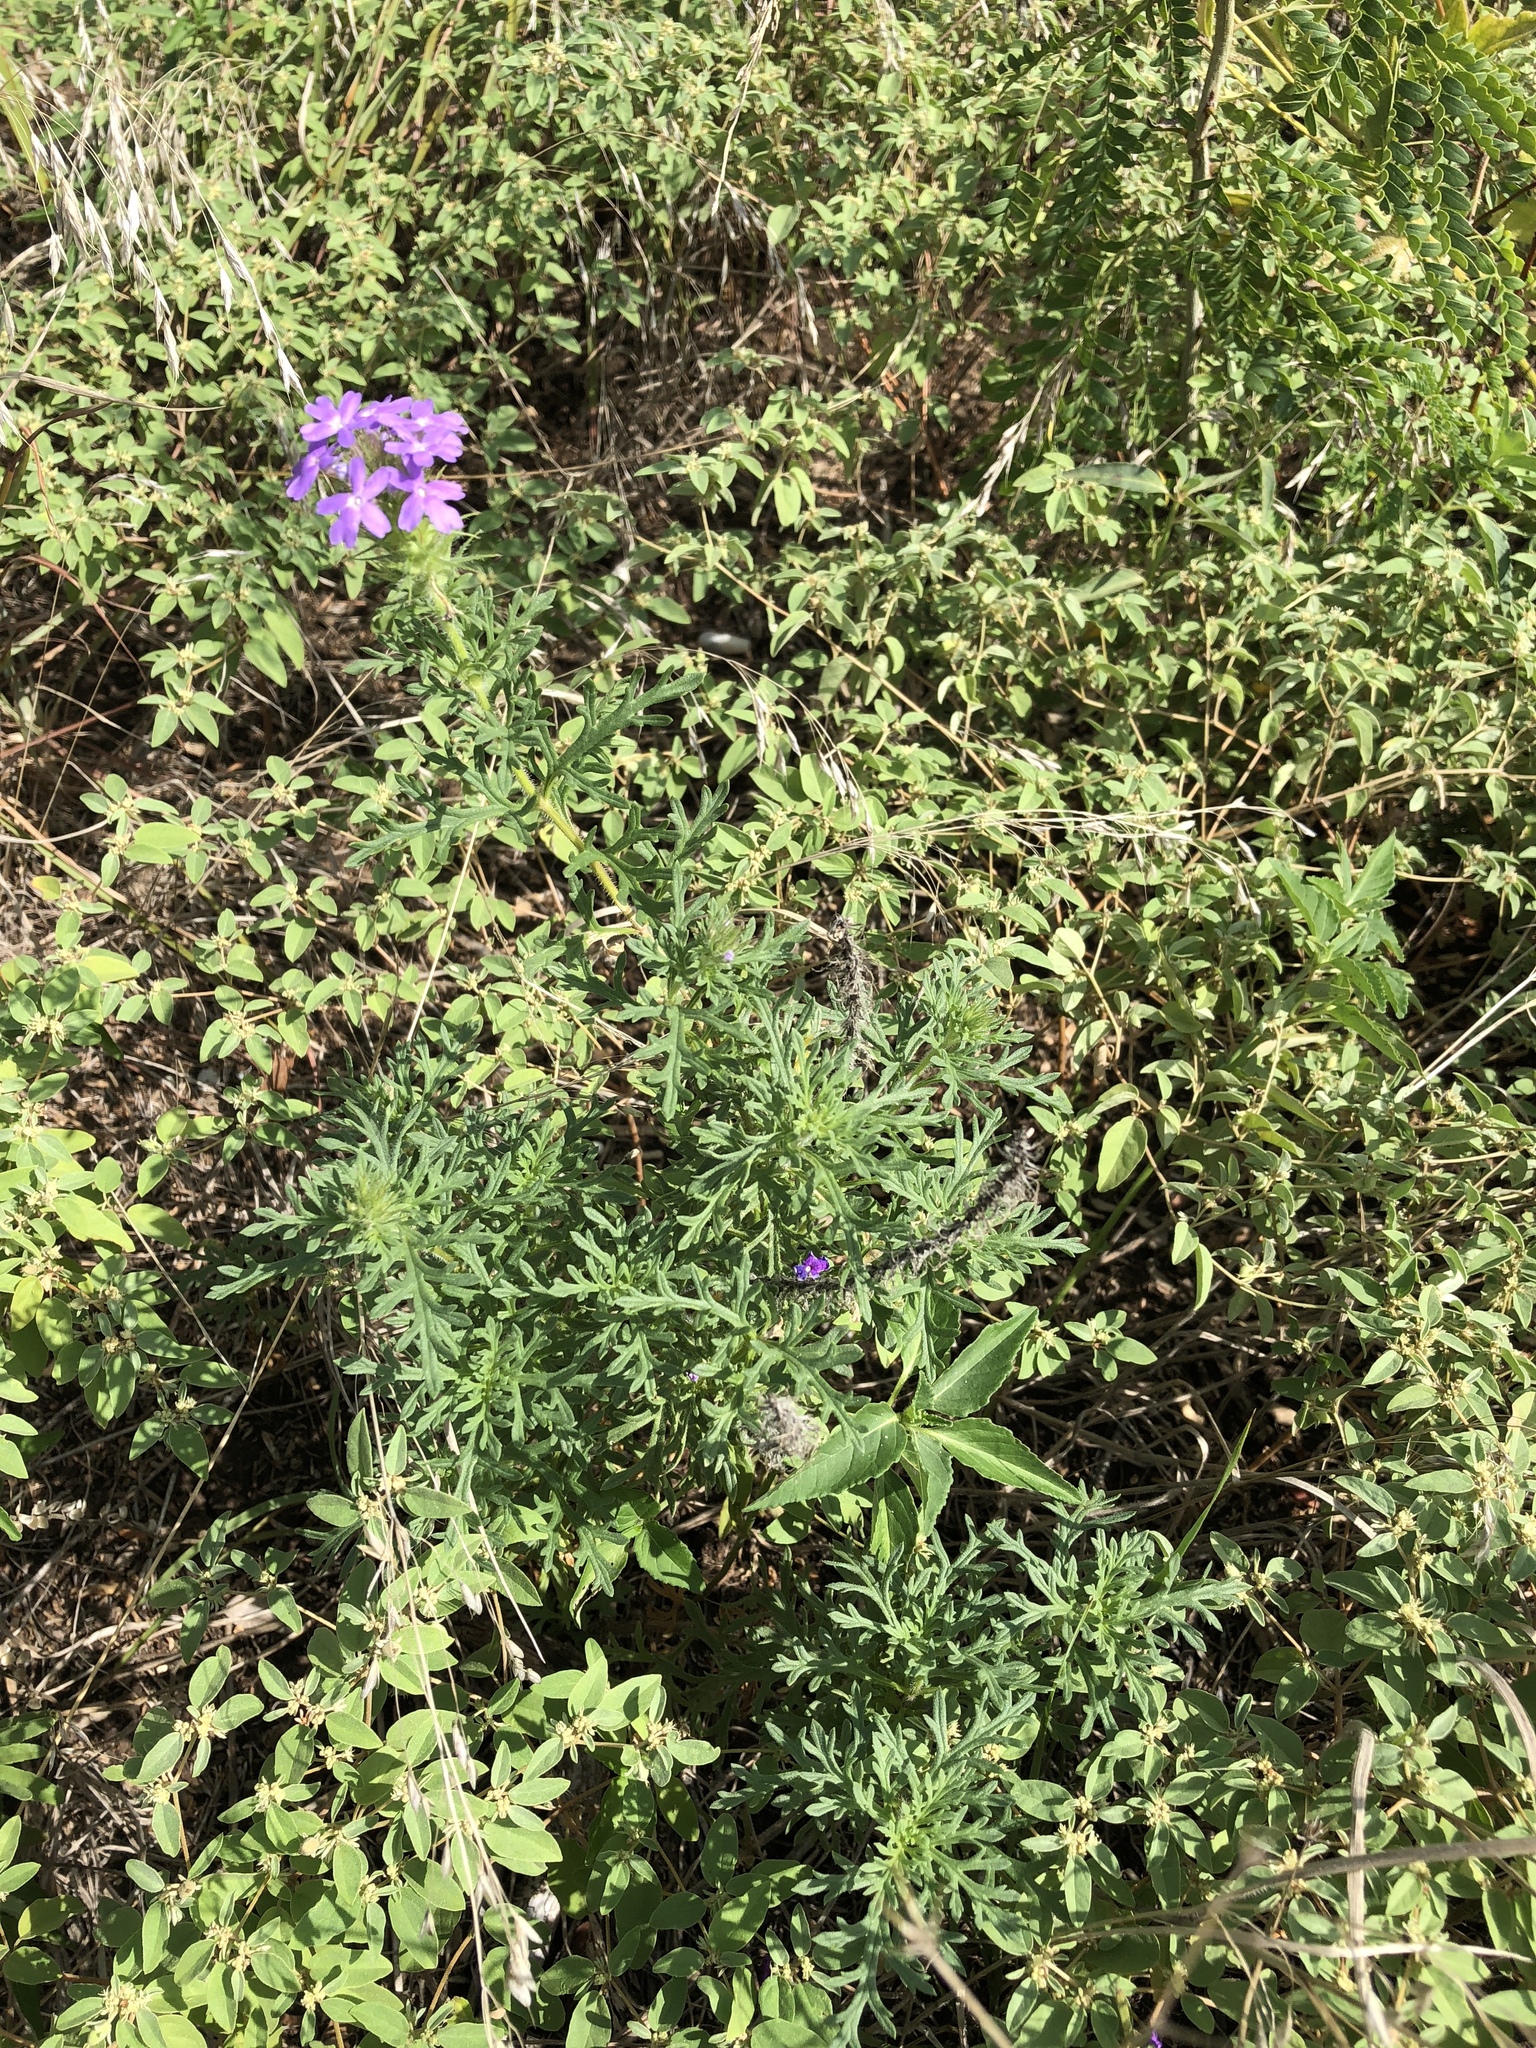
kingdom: Plantae
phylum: Tracheophyta
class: Magnoliopsida
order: Lamiales
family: Verbenaceae
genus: Verbena
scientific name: Verbena bipinnatifida
